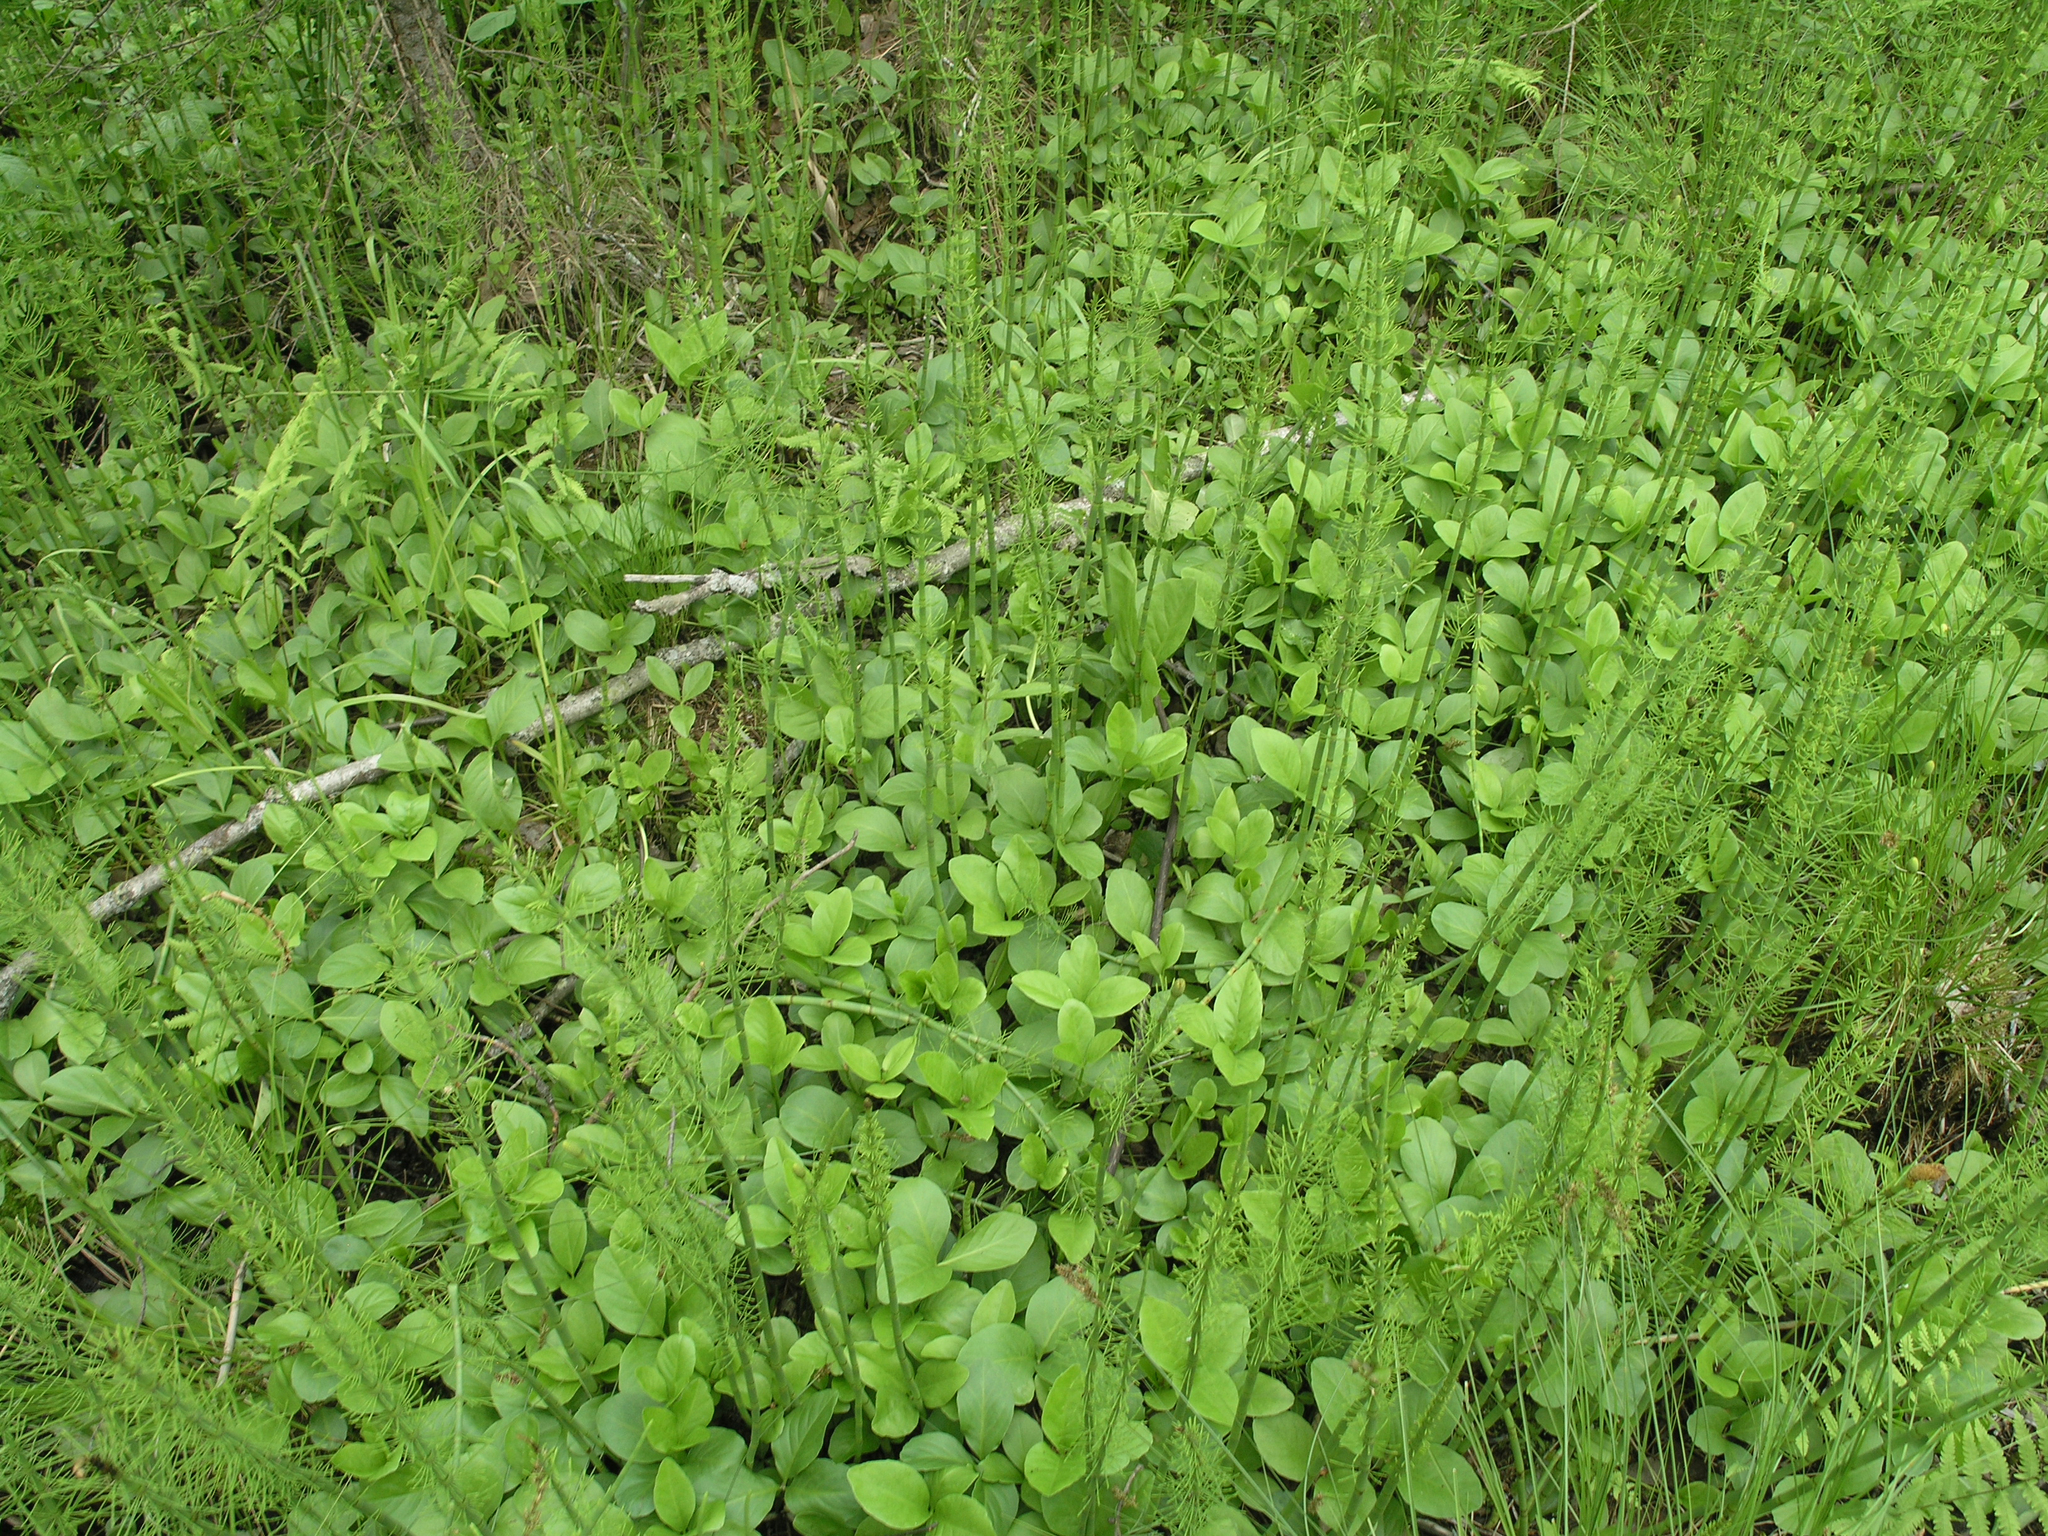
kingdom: Plantae
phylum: Tracheophyta
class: Magnoliopsida
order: Asterales
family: Menyanthaceae
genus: Menyanthes
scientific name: Menyanthes trifoliata
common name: Bogbean
